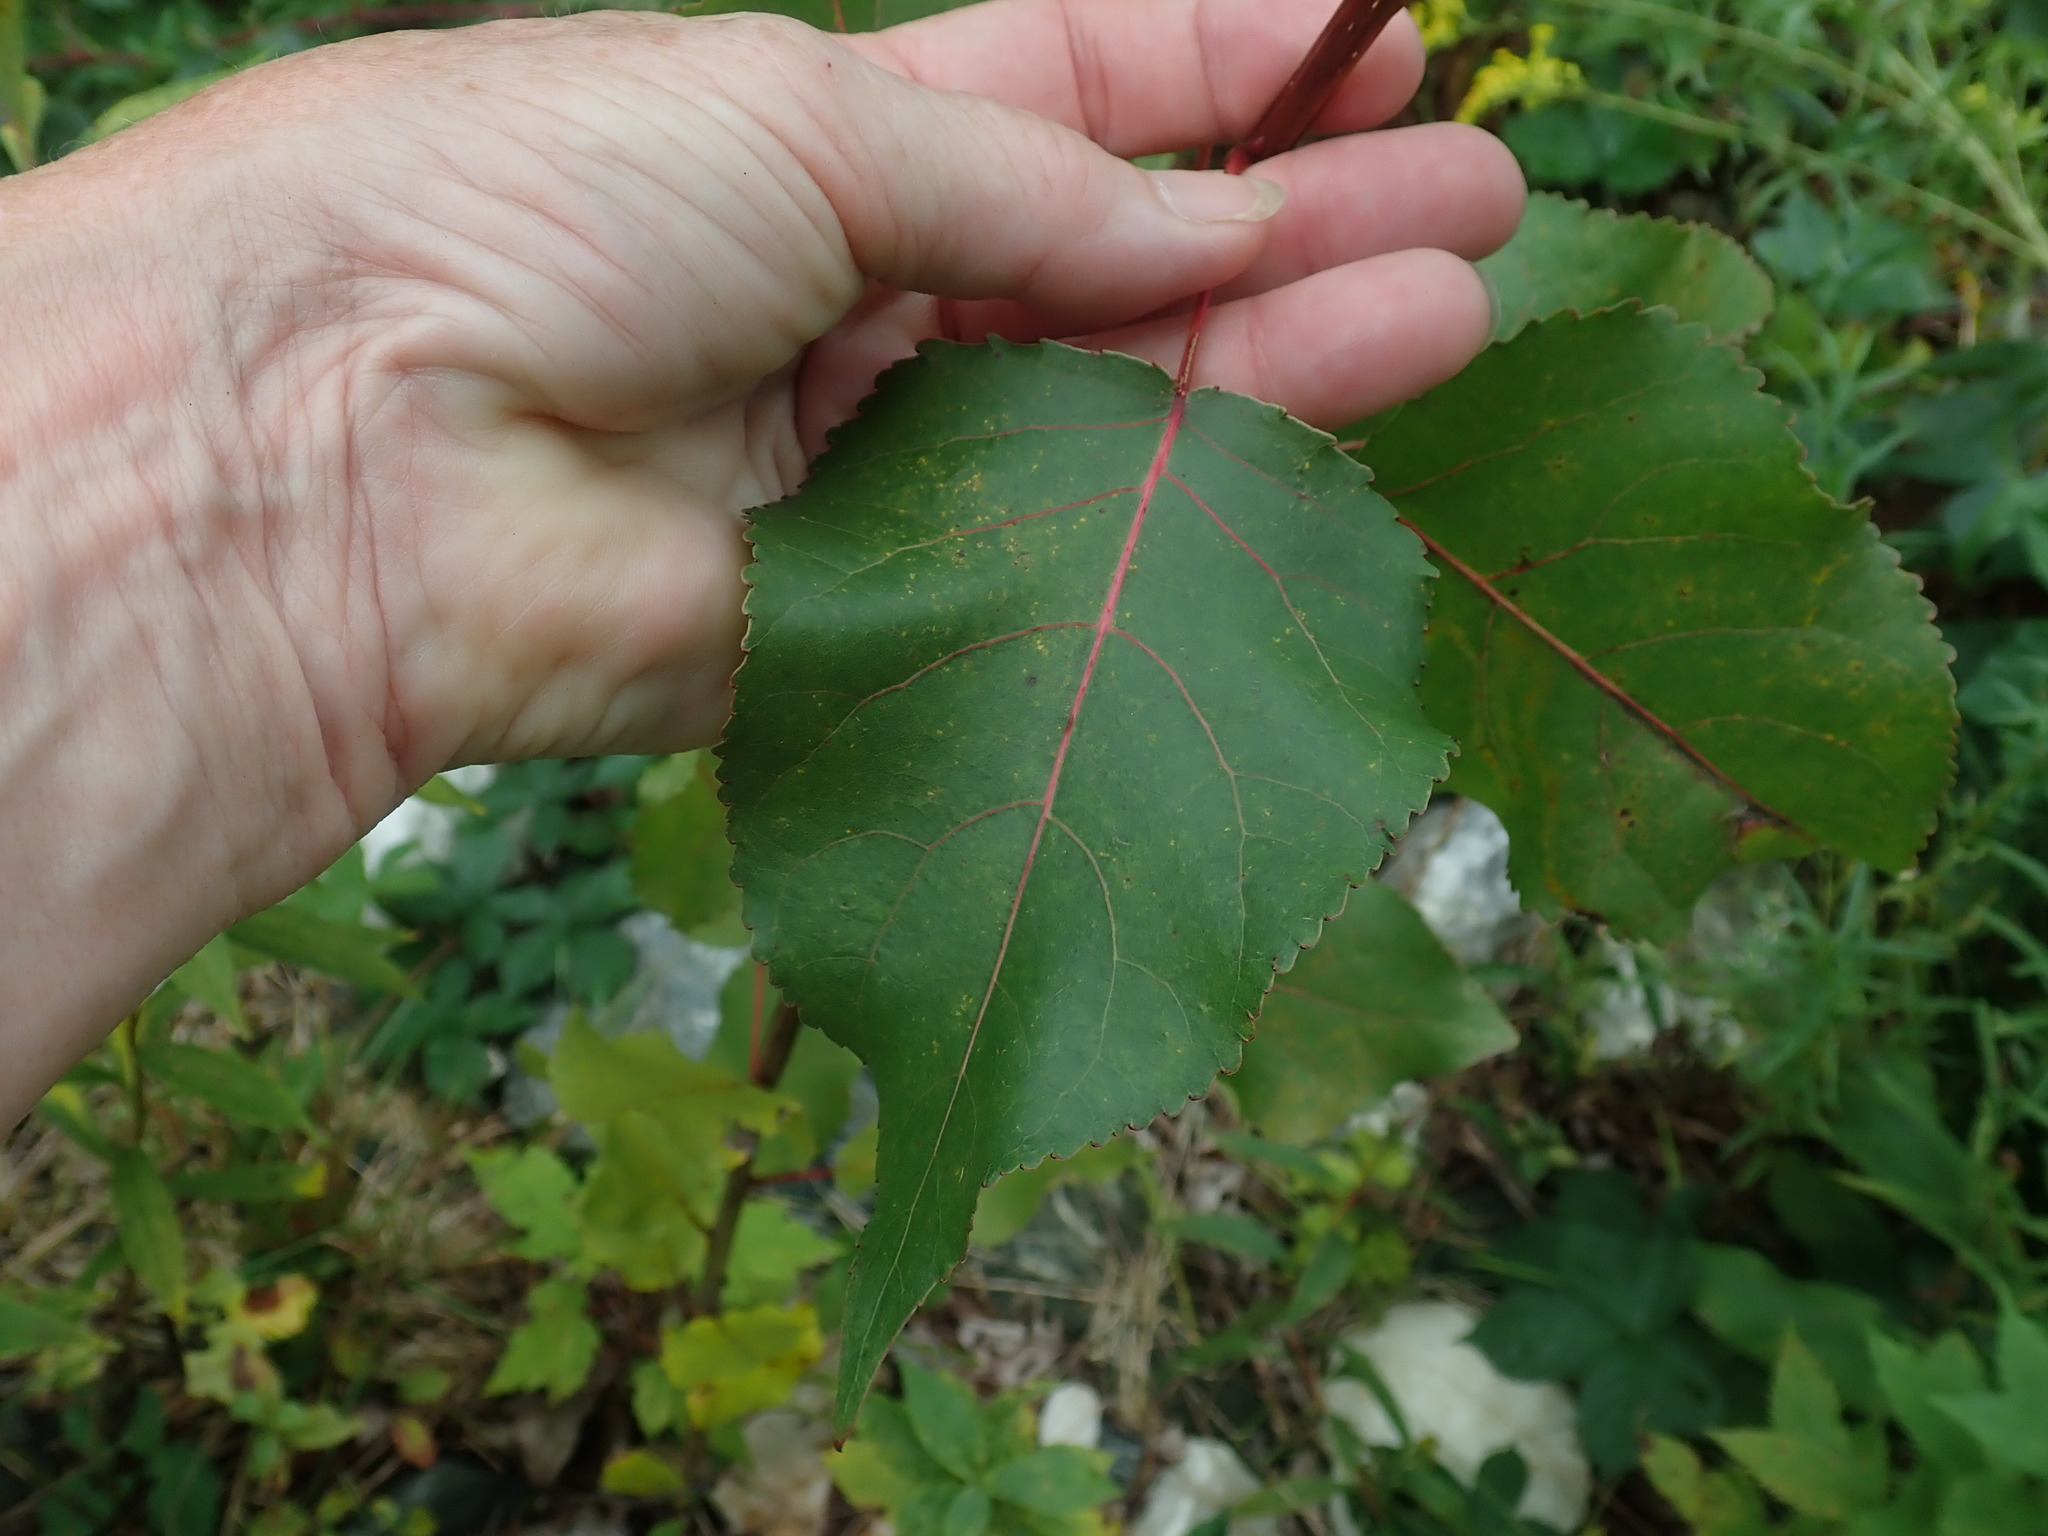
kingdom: Plantae
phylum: Tracheophyta
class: Magnoliopsida
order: Malpighiales
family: Salicaceae
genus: Populus
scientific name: Populus deltoides
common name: Eastern cottonwood
